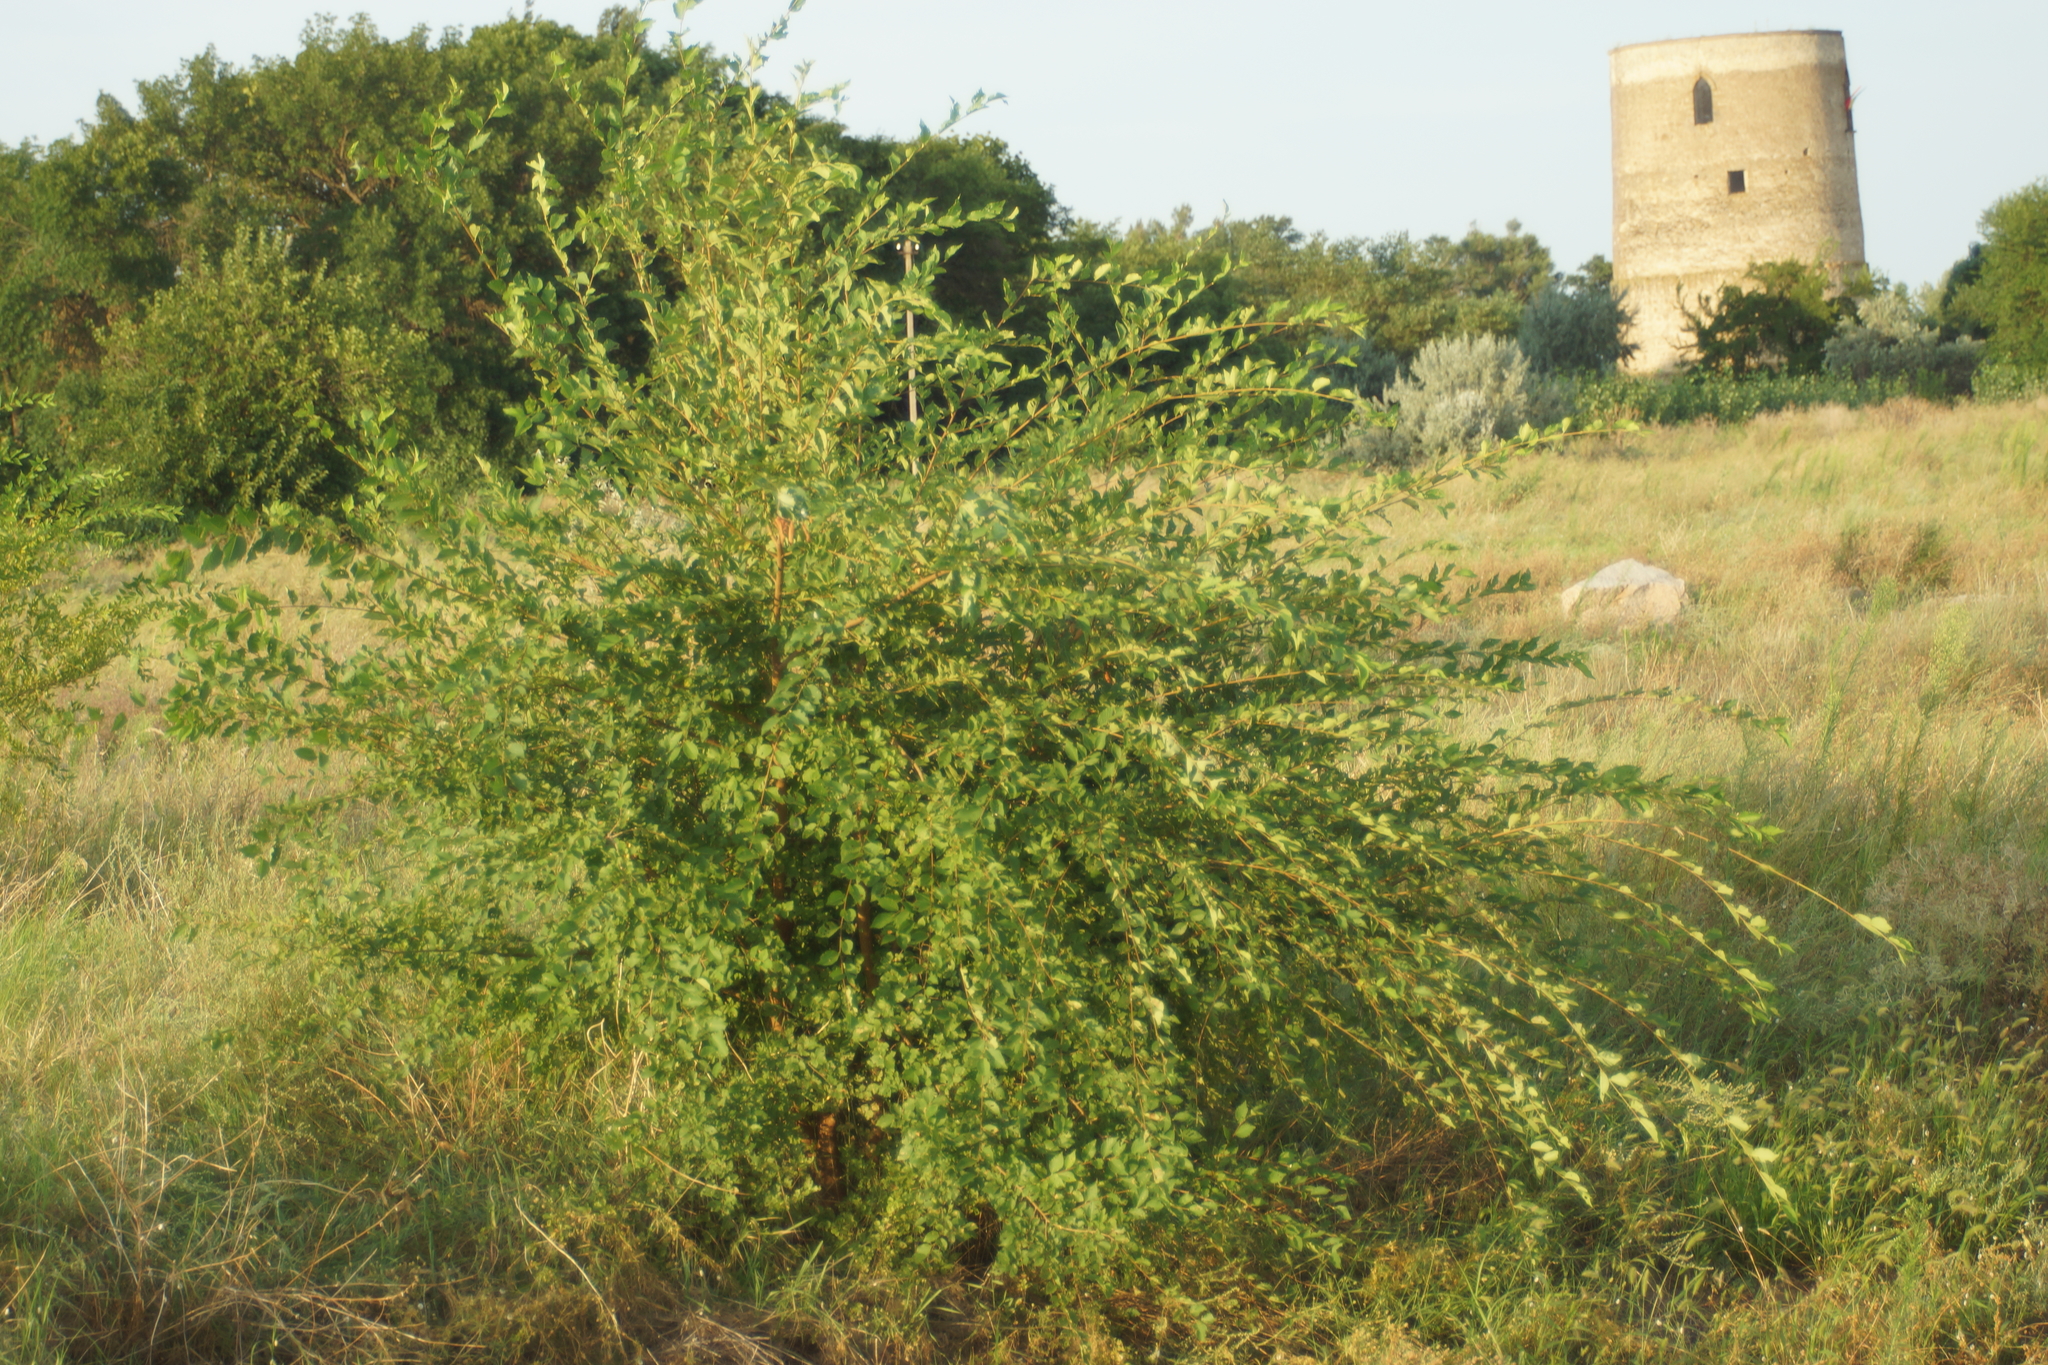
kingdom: Plantae
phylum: Tracheophyta
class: Magnoliopsida
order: Rosales
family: Ulmaceae
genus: Ulmus
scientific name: Ulmus pumila
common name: Siberian elm
